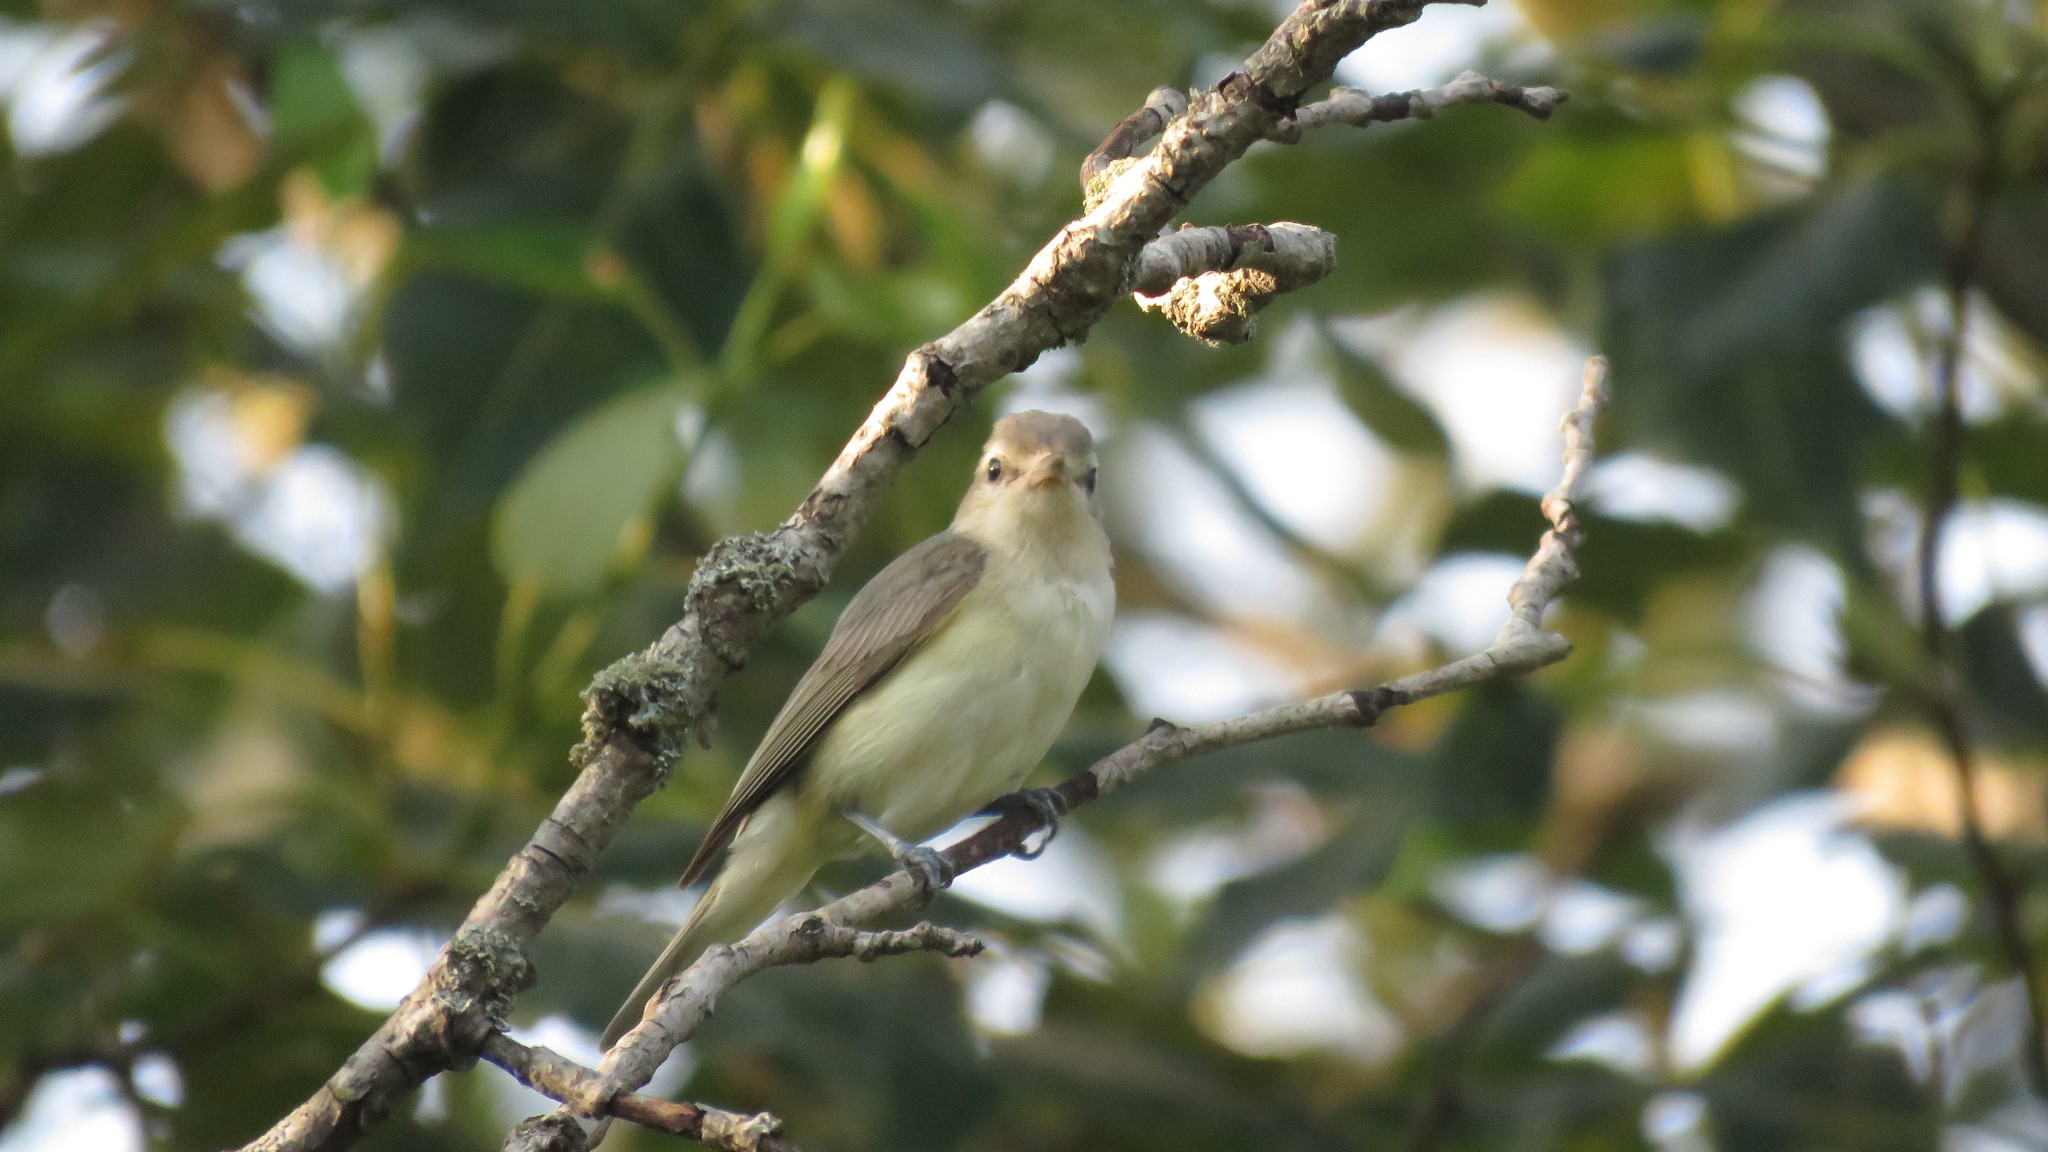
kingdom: Animalia
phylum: Chordata
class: Aves
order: Passeriformes
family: Vireonidae
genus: Vireo
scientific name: Vireo gilvus
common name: Warbling vireo
